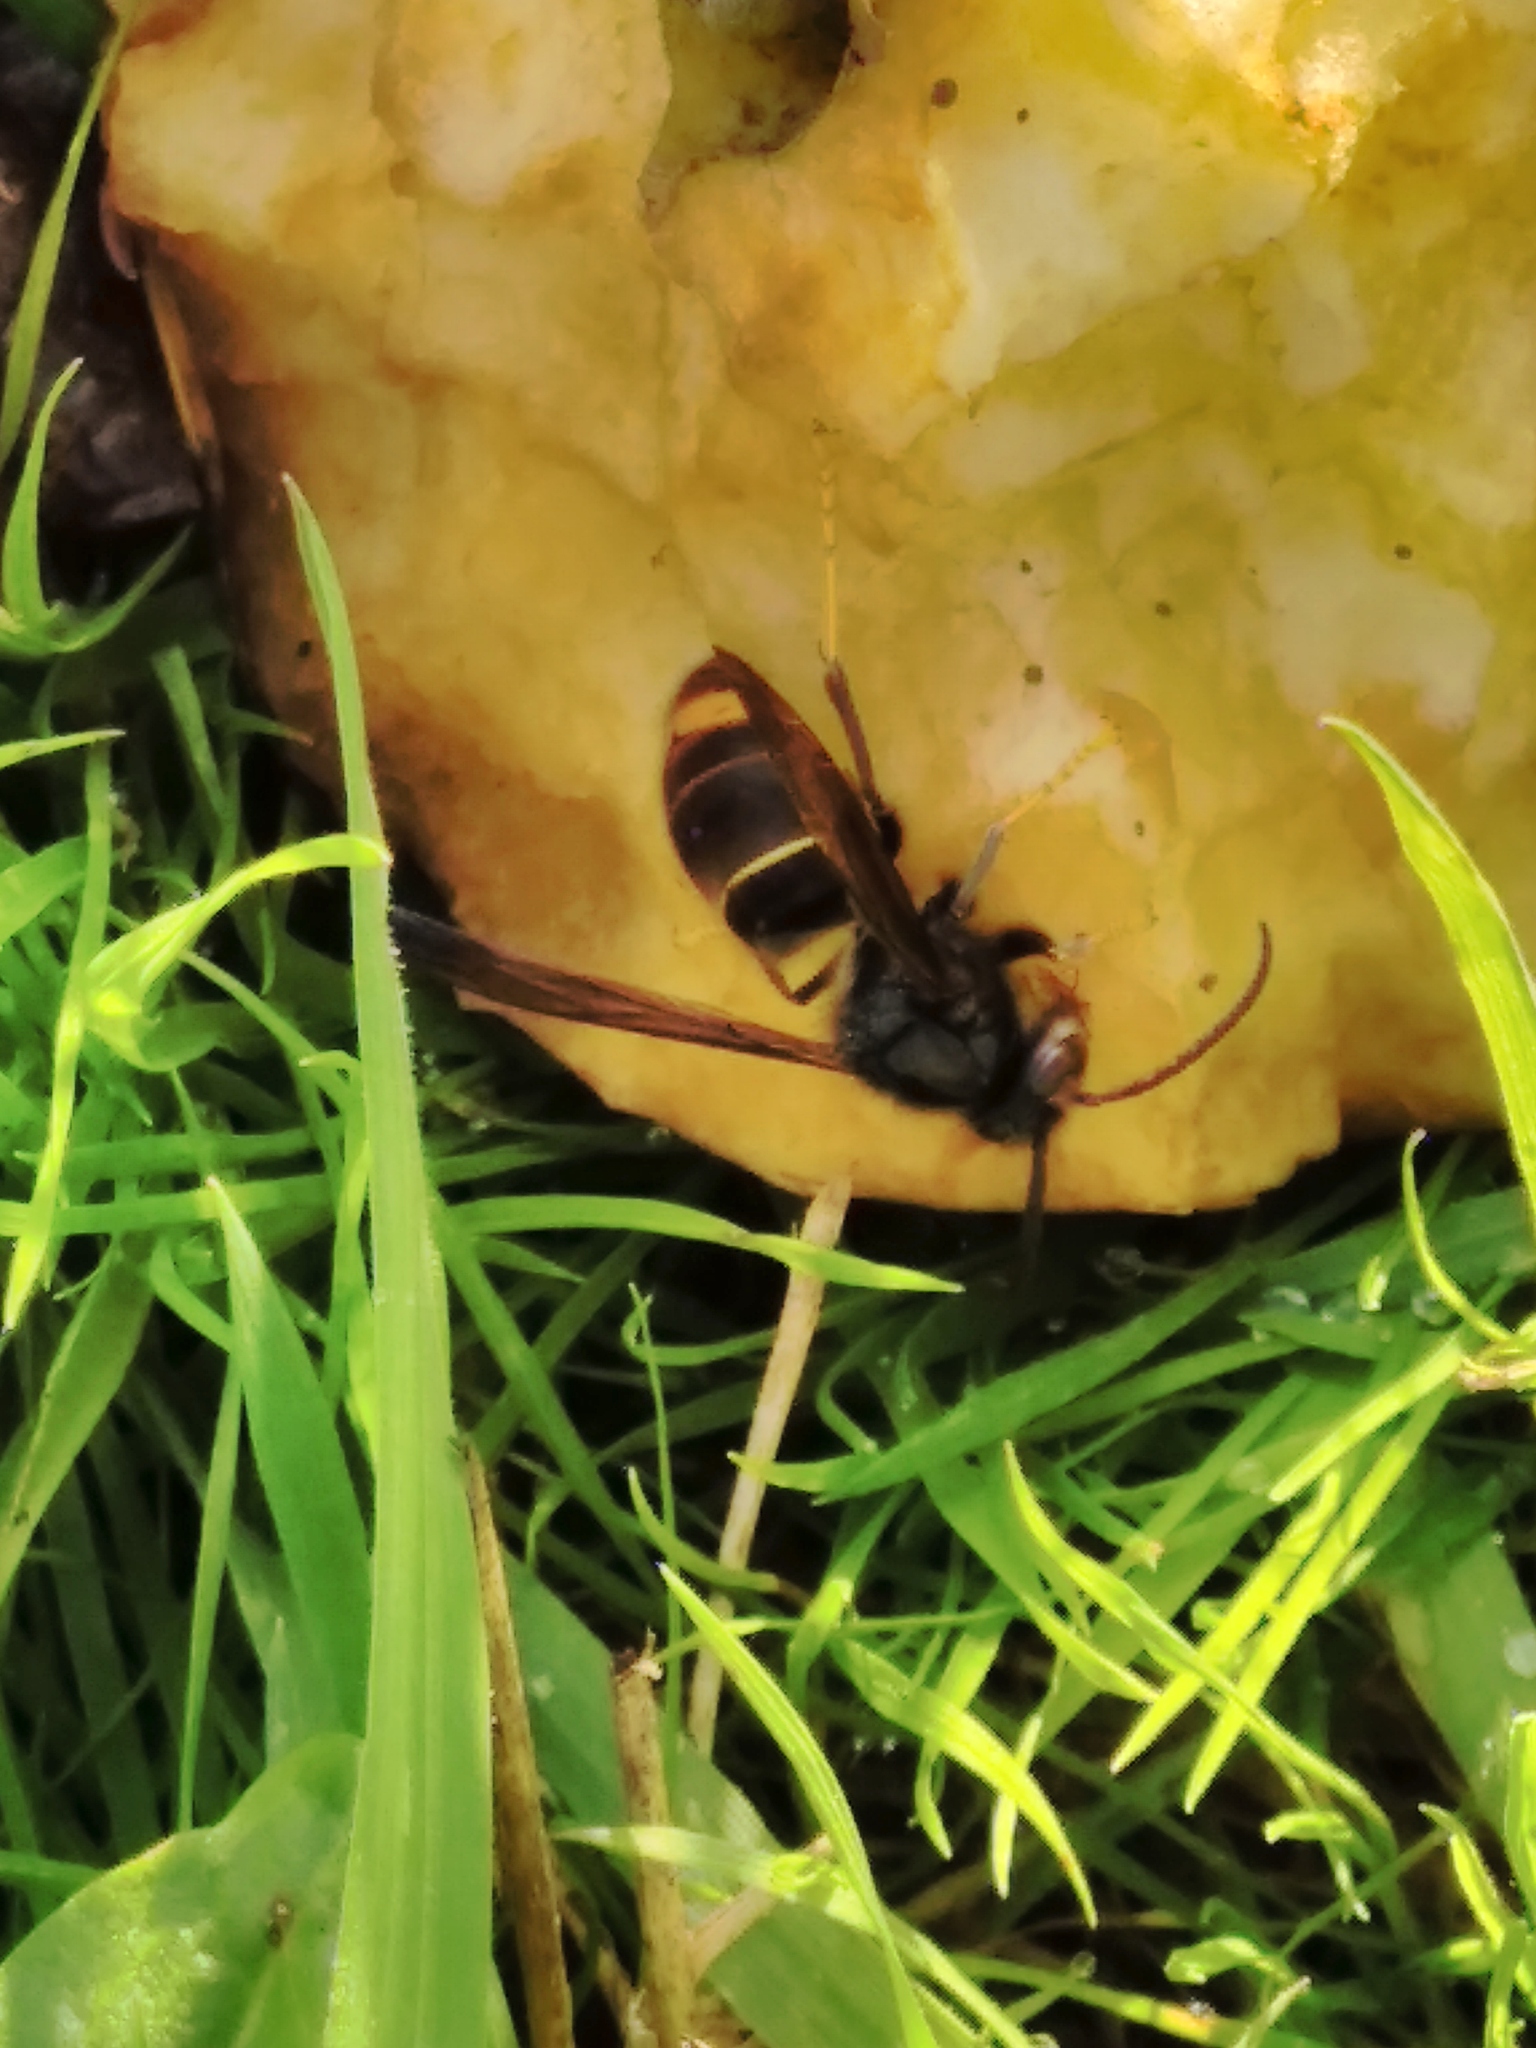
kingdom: Animalia
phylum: Arthropoda
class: Insecta
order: Hymenoptera
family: Vespidae
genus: Vespa
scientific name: Vespa velutina
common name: Asian hornet
